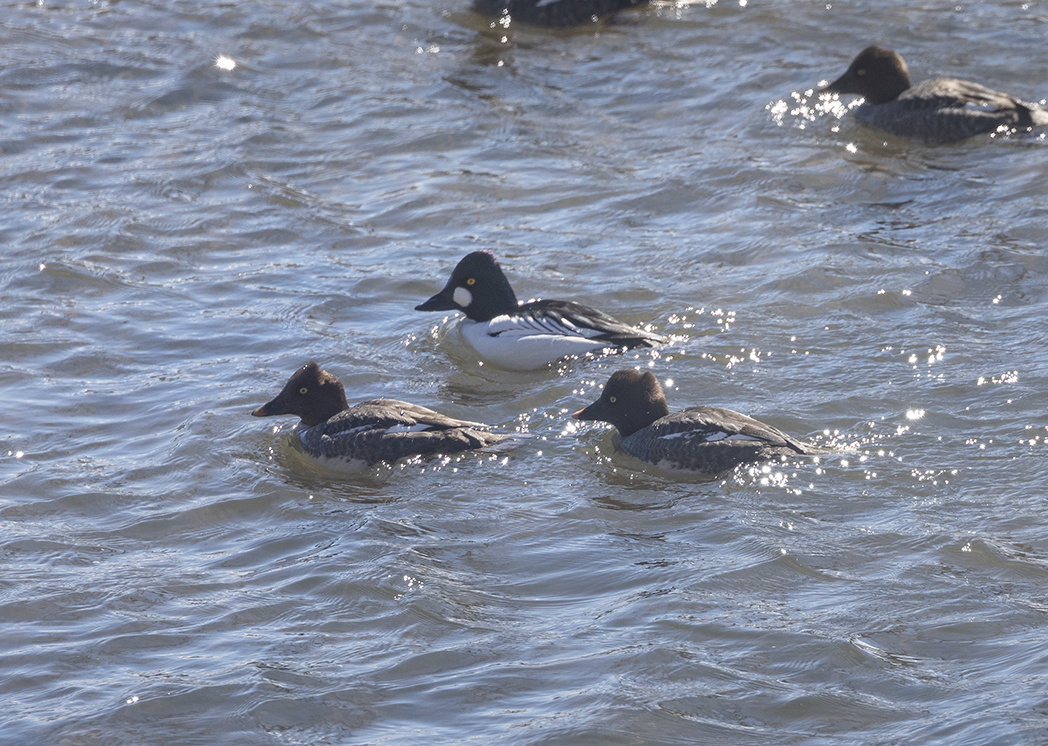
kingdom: Animalia
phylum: Chordata
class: Aves
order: Anseriformes
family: Anatidae
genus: Bucephala
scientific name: Bucephala clangula
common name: Common goldeneye
